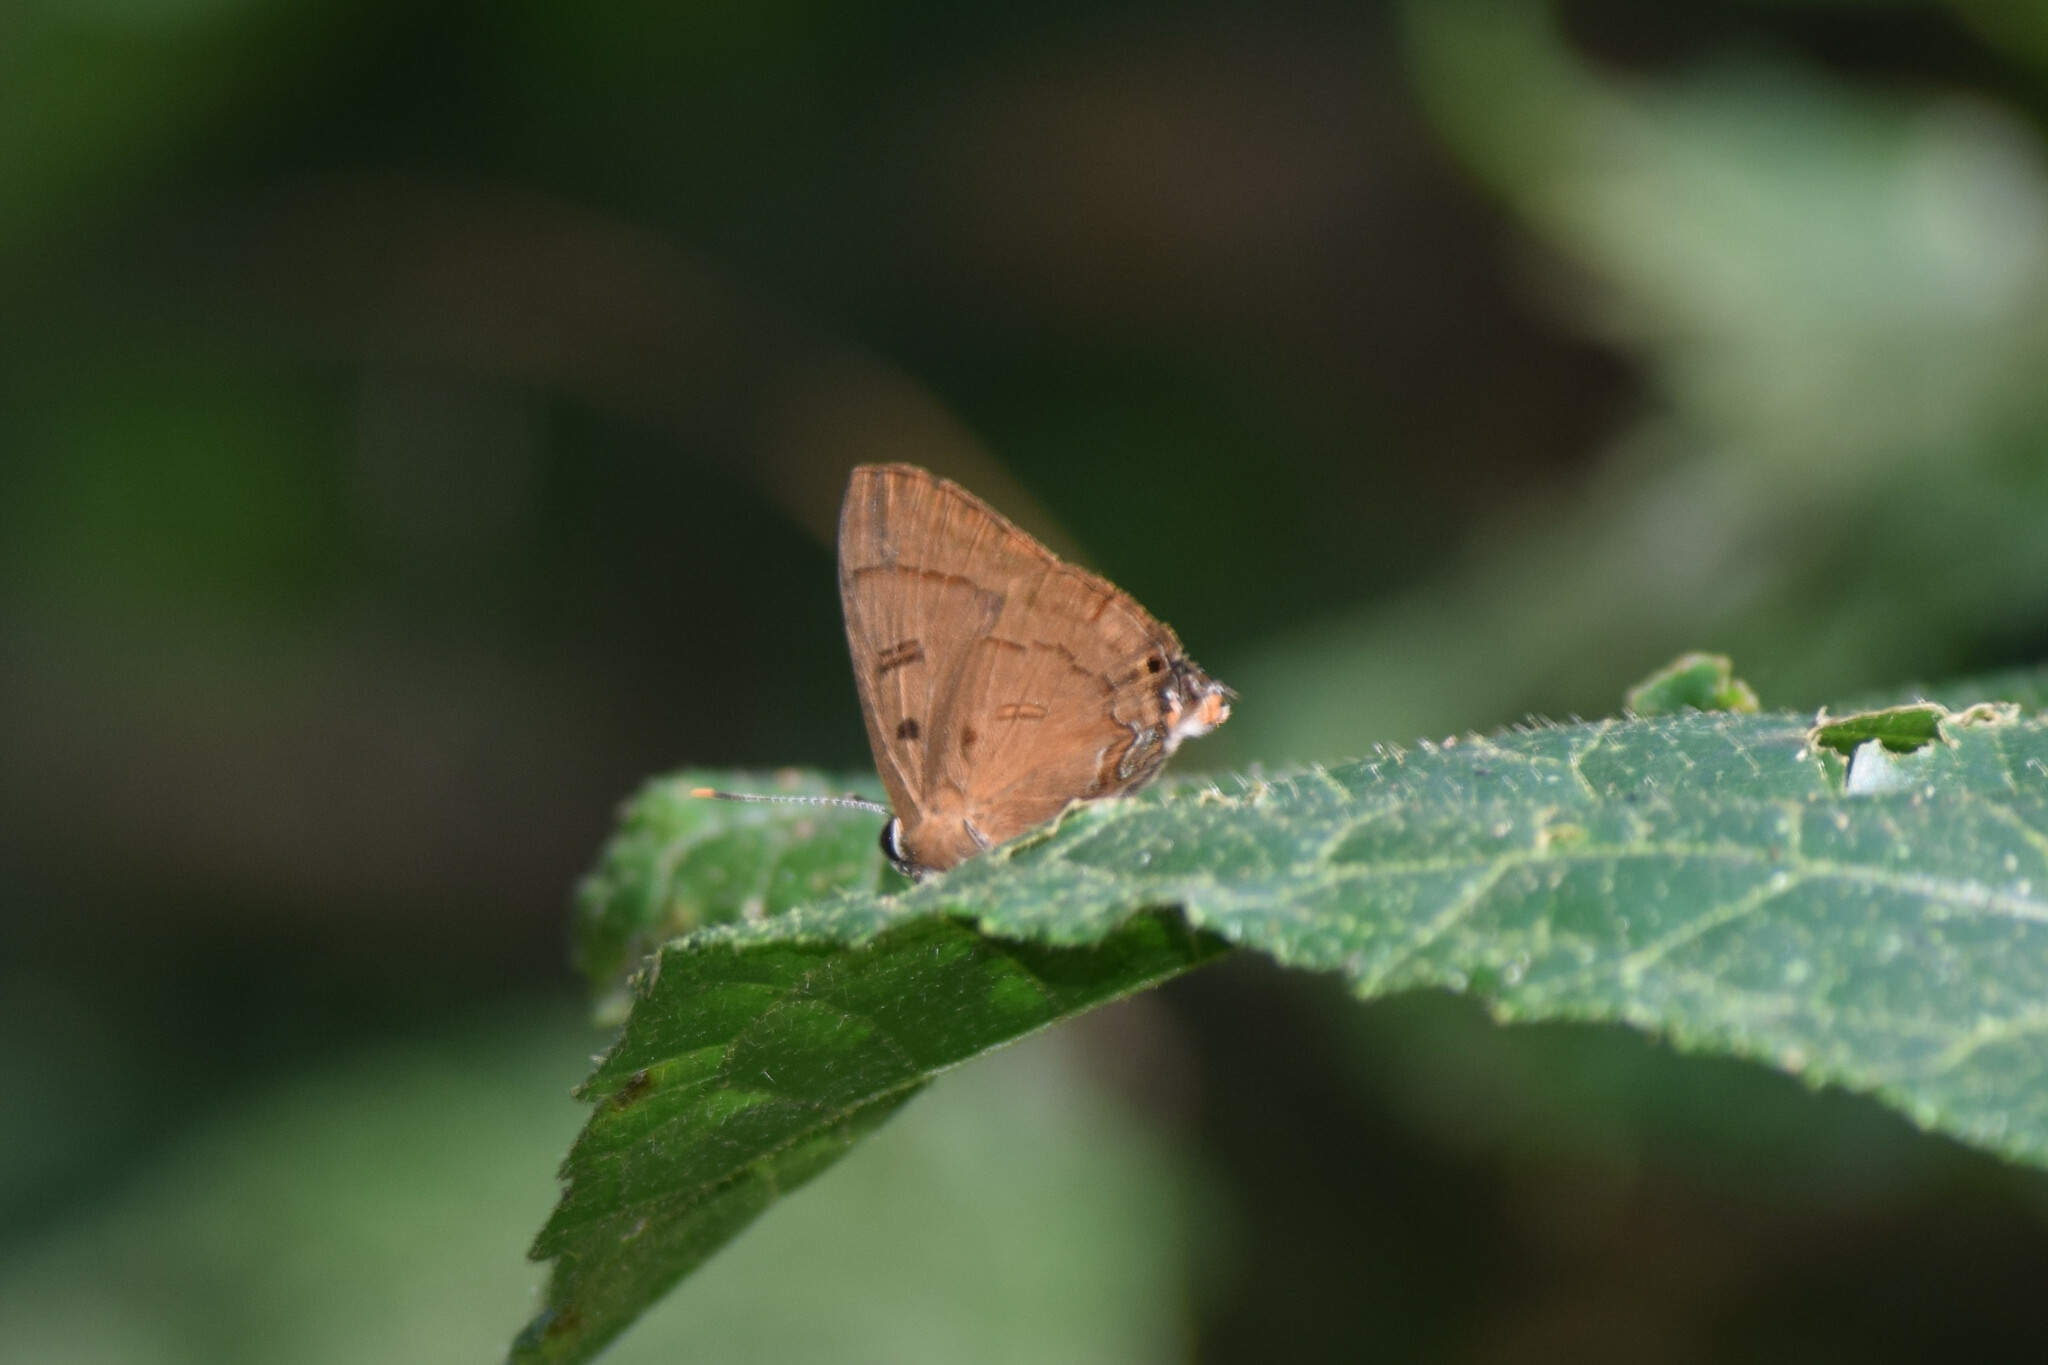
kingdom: Animalia
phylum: Arthropoda
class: Insecta
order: Lepidoptera
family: Lycaenidae
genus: Rapala
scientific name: Rapala pheretima
